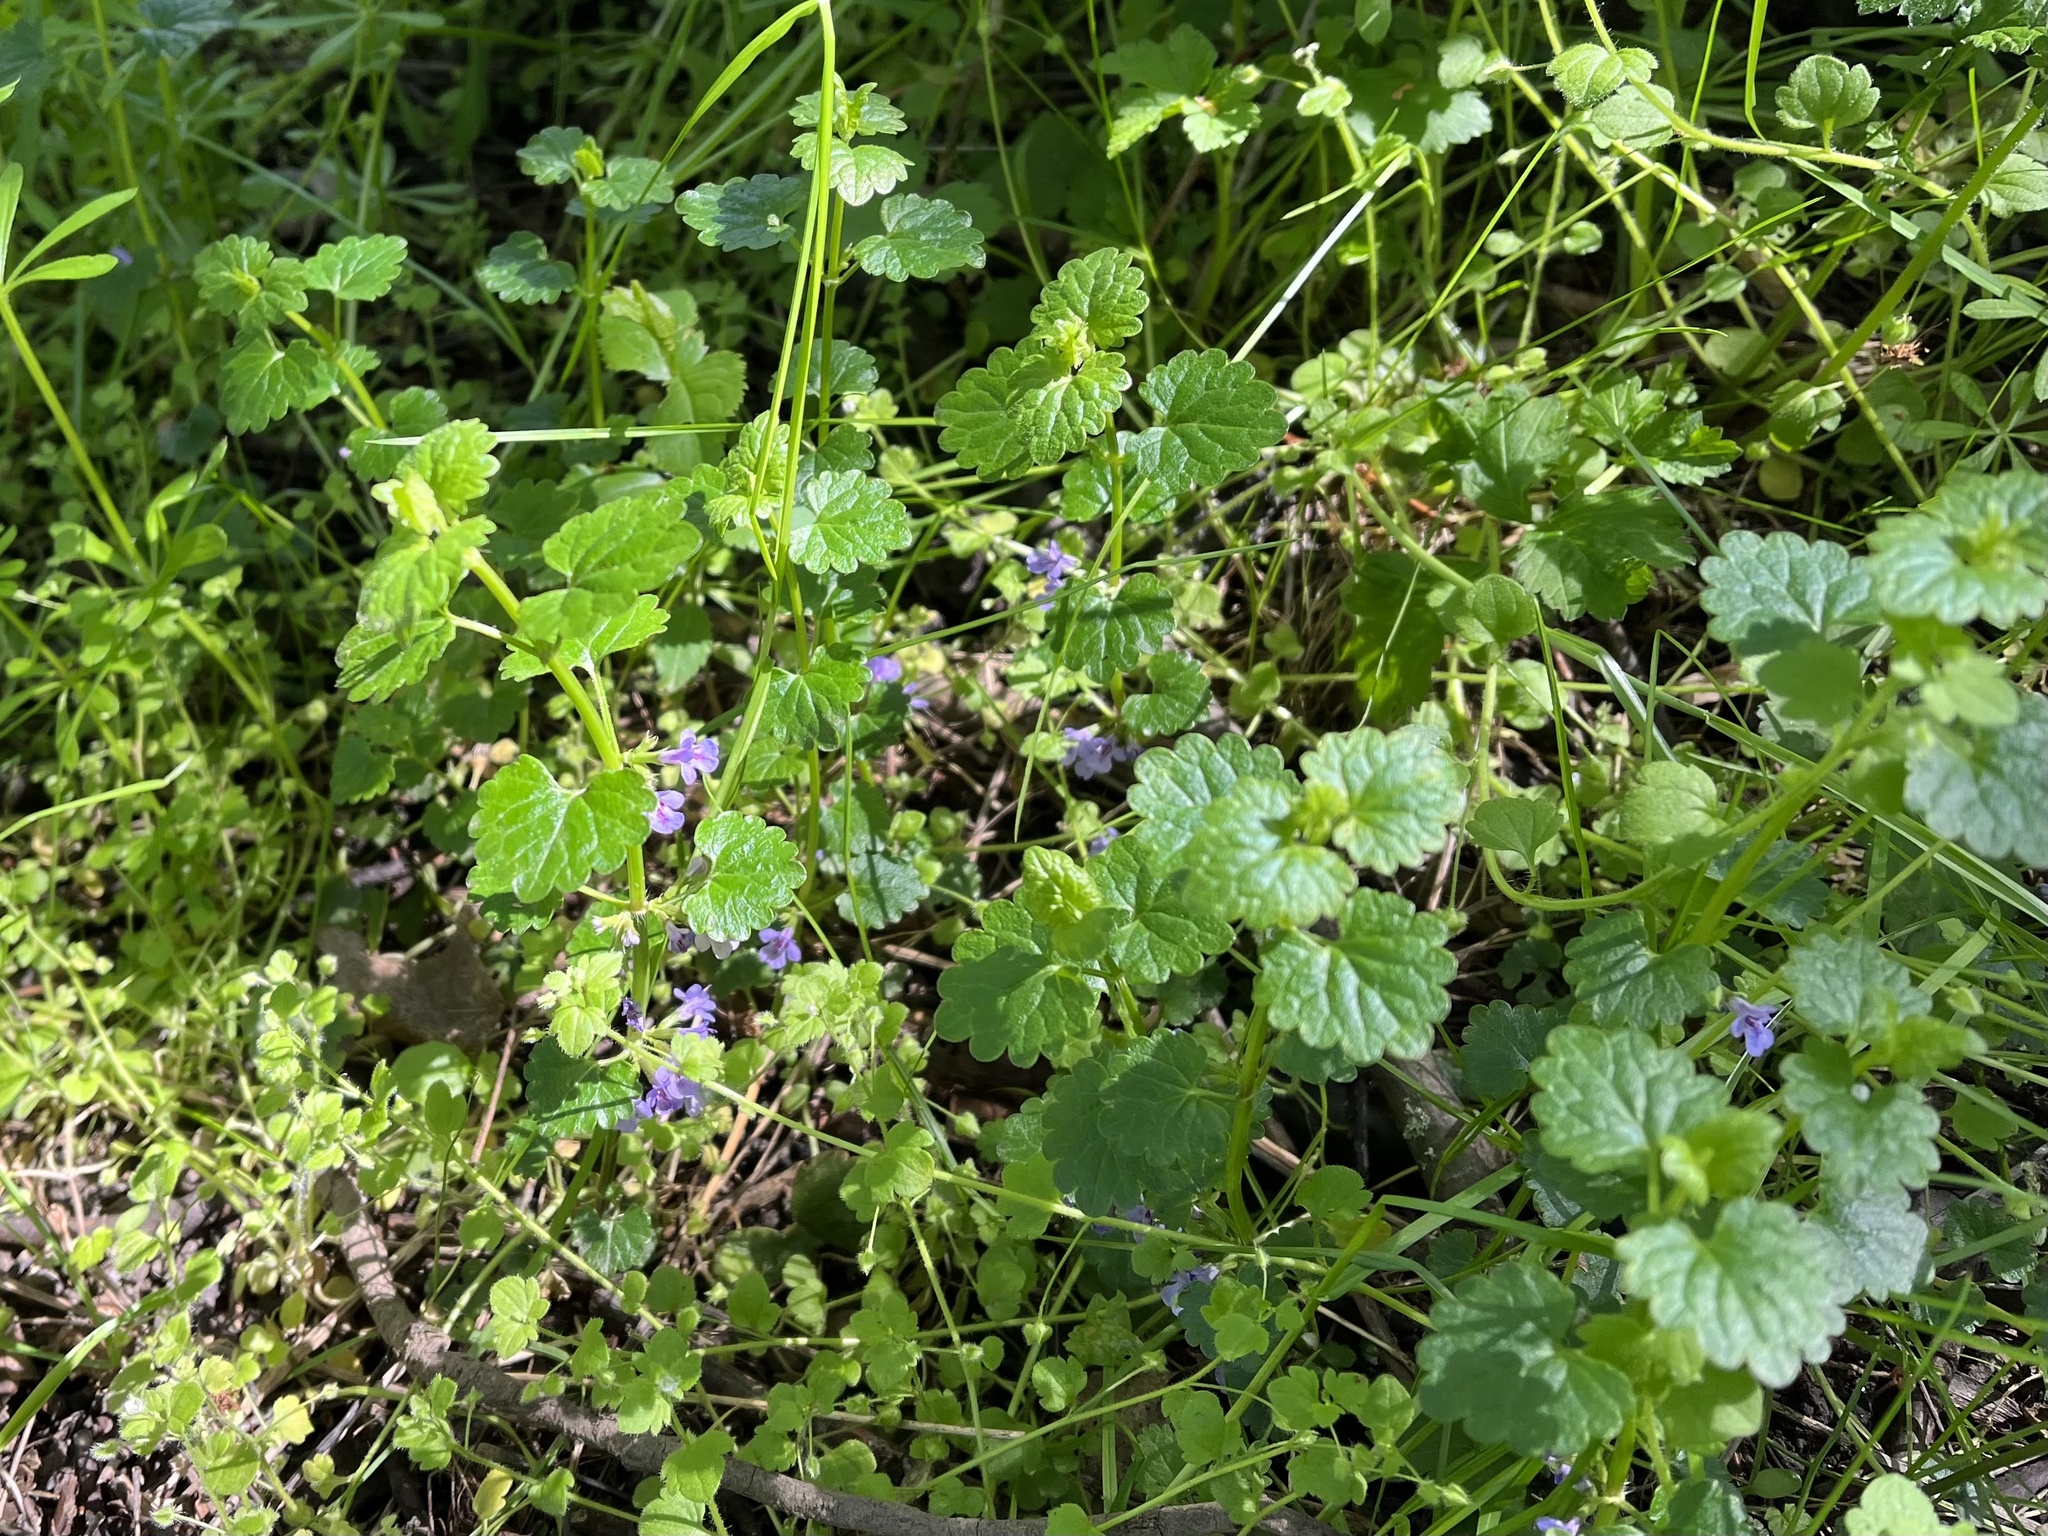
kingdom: Plantae
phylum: Tracheophyta
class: Magnoliopsida
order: Lamiales
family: Lamiaceae
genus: Glechoma
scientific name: Glechoma hederacea
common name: Ground ivy
